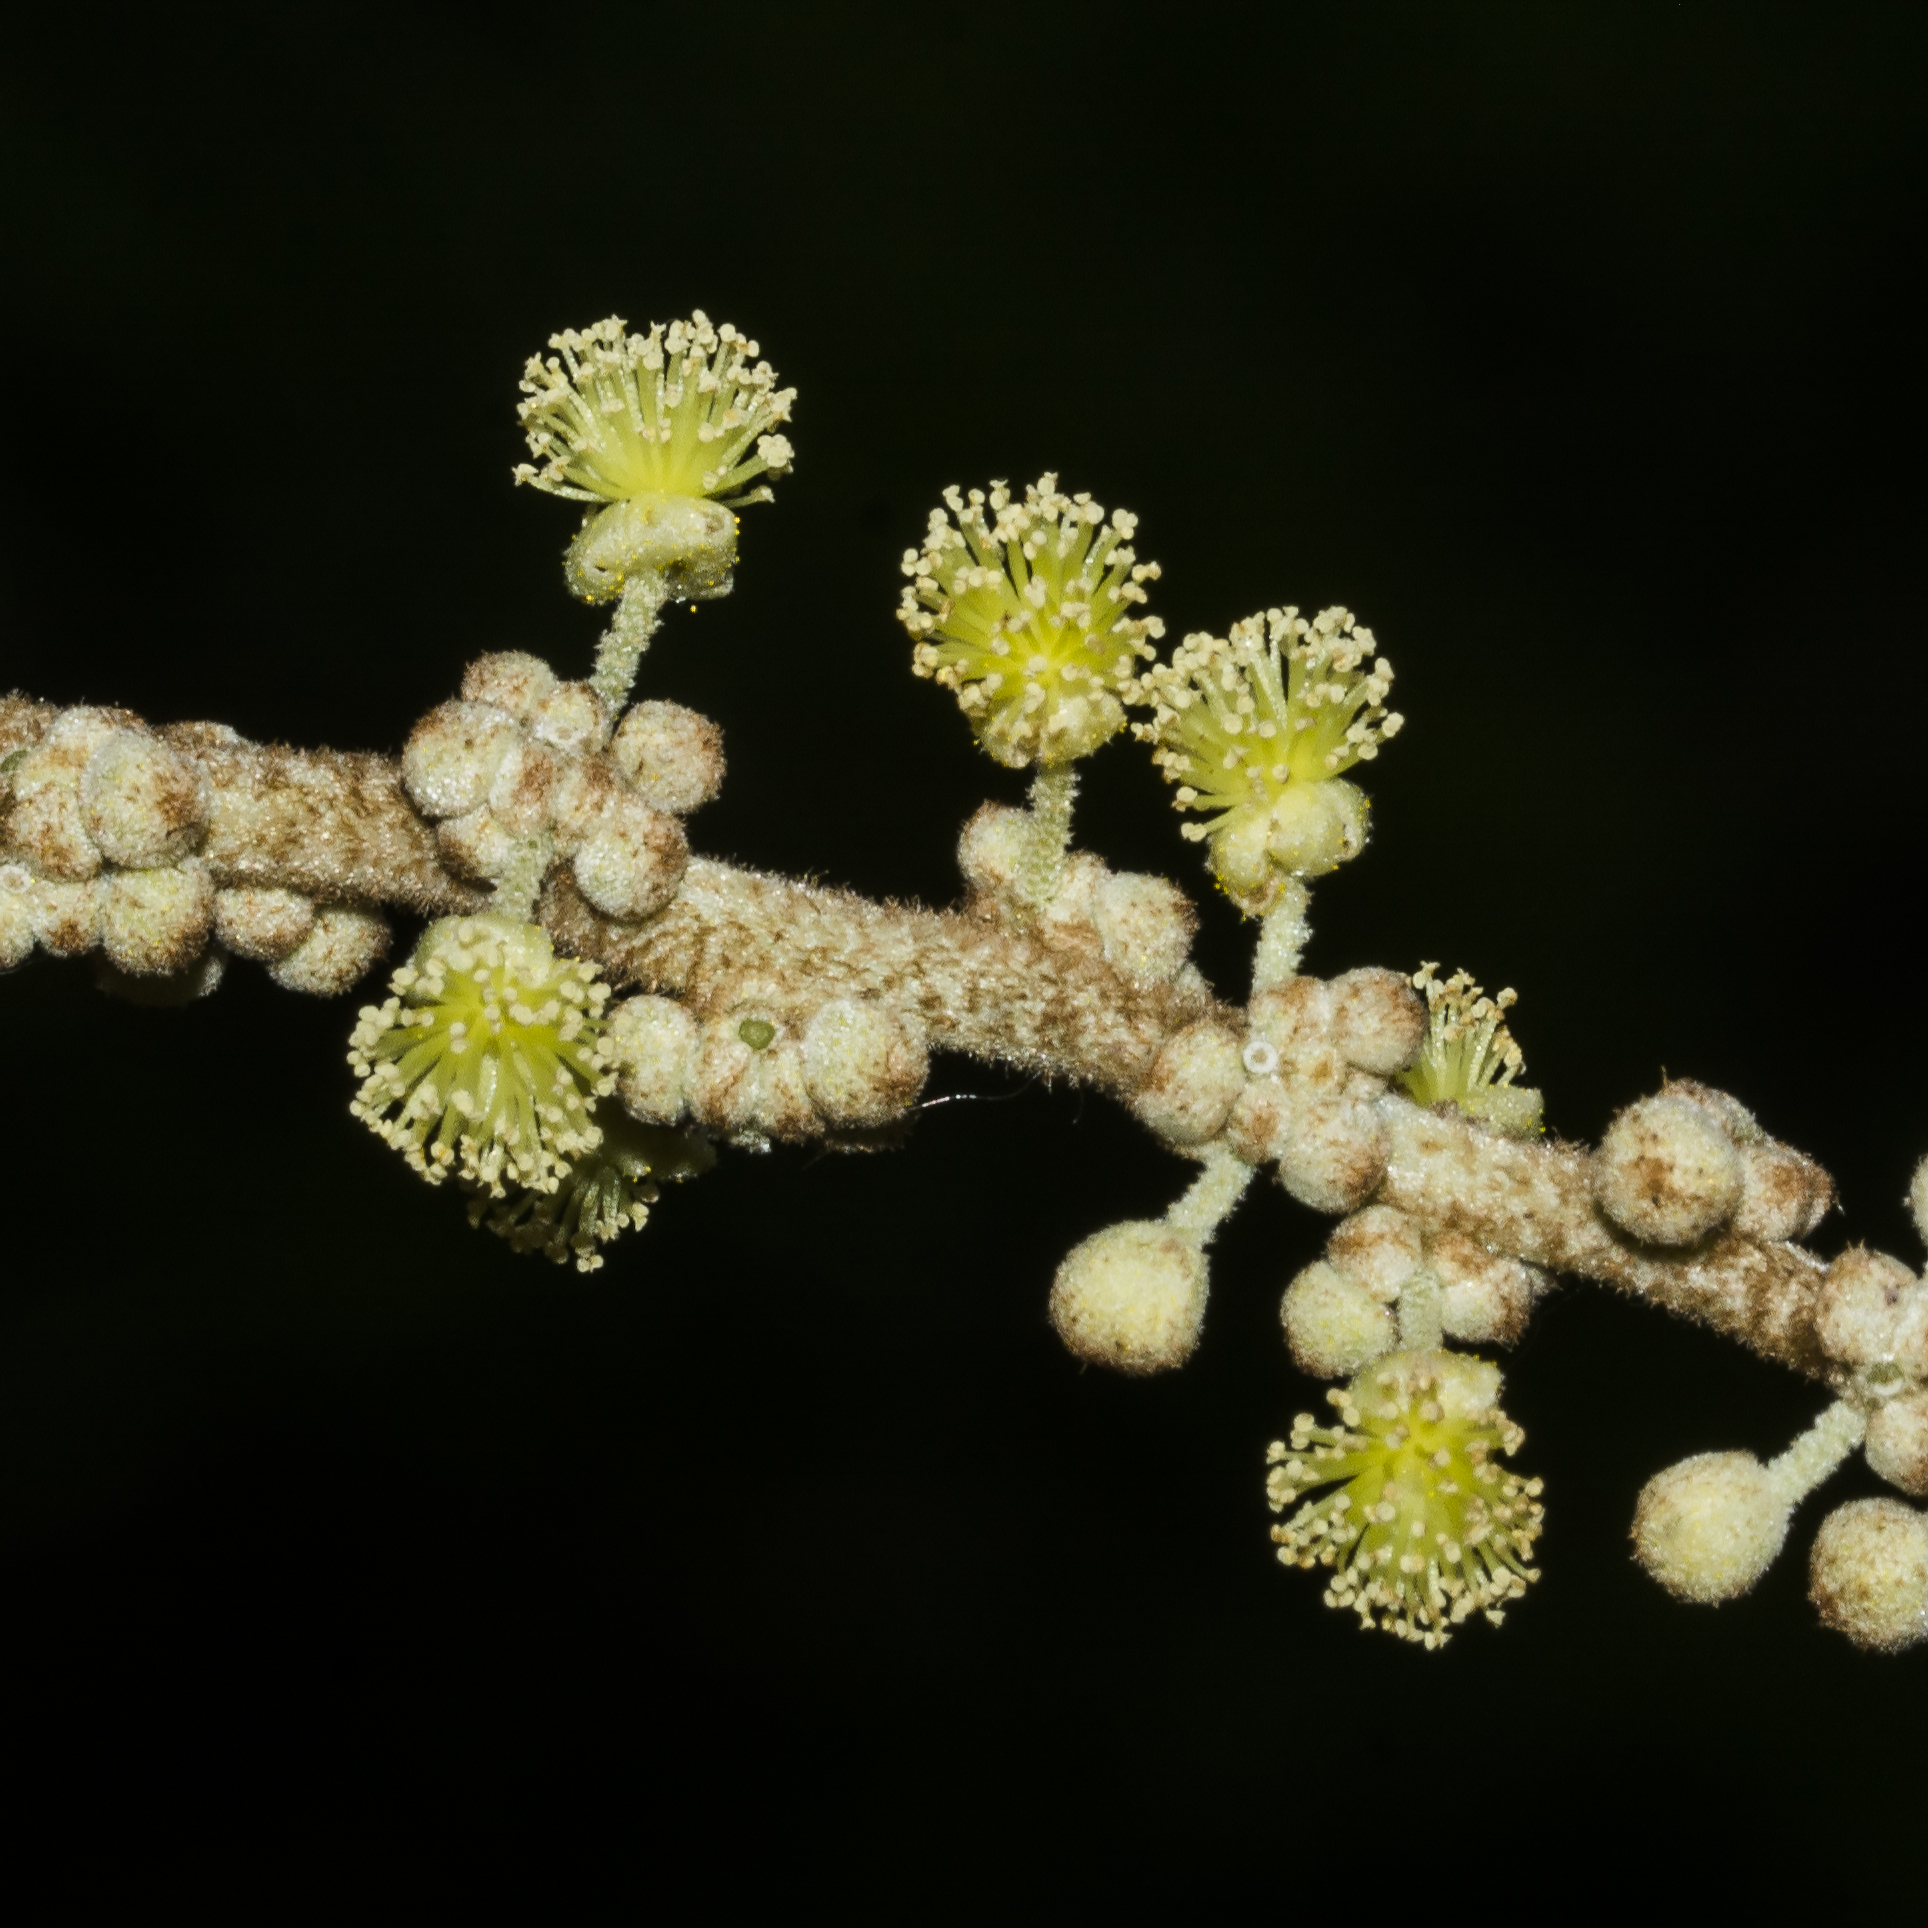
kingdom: Plantae
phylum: Tracheophyta
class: Magnoliopsida
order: Malpighiales
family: Euphorbiaceae
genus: Mallotus
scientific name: Mallotus tetracoccus
